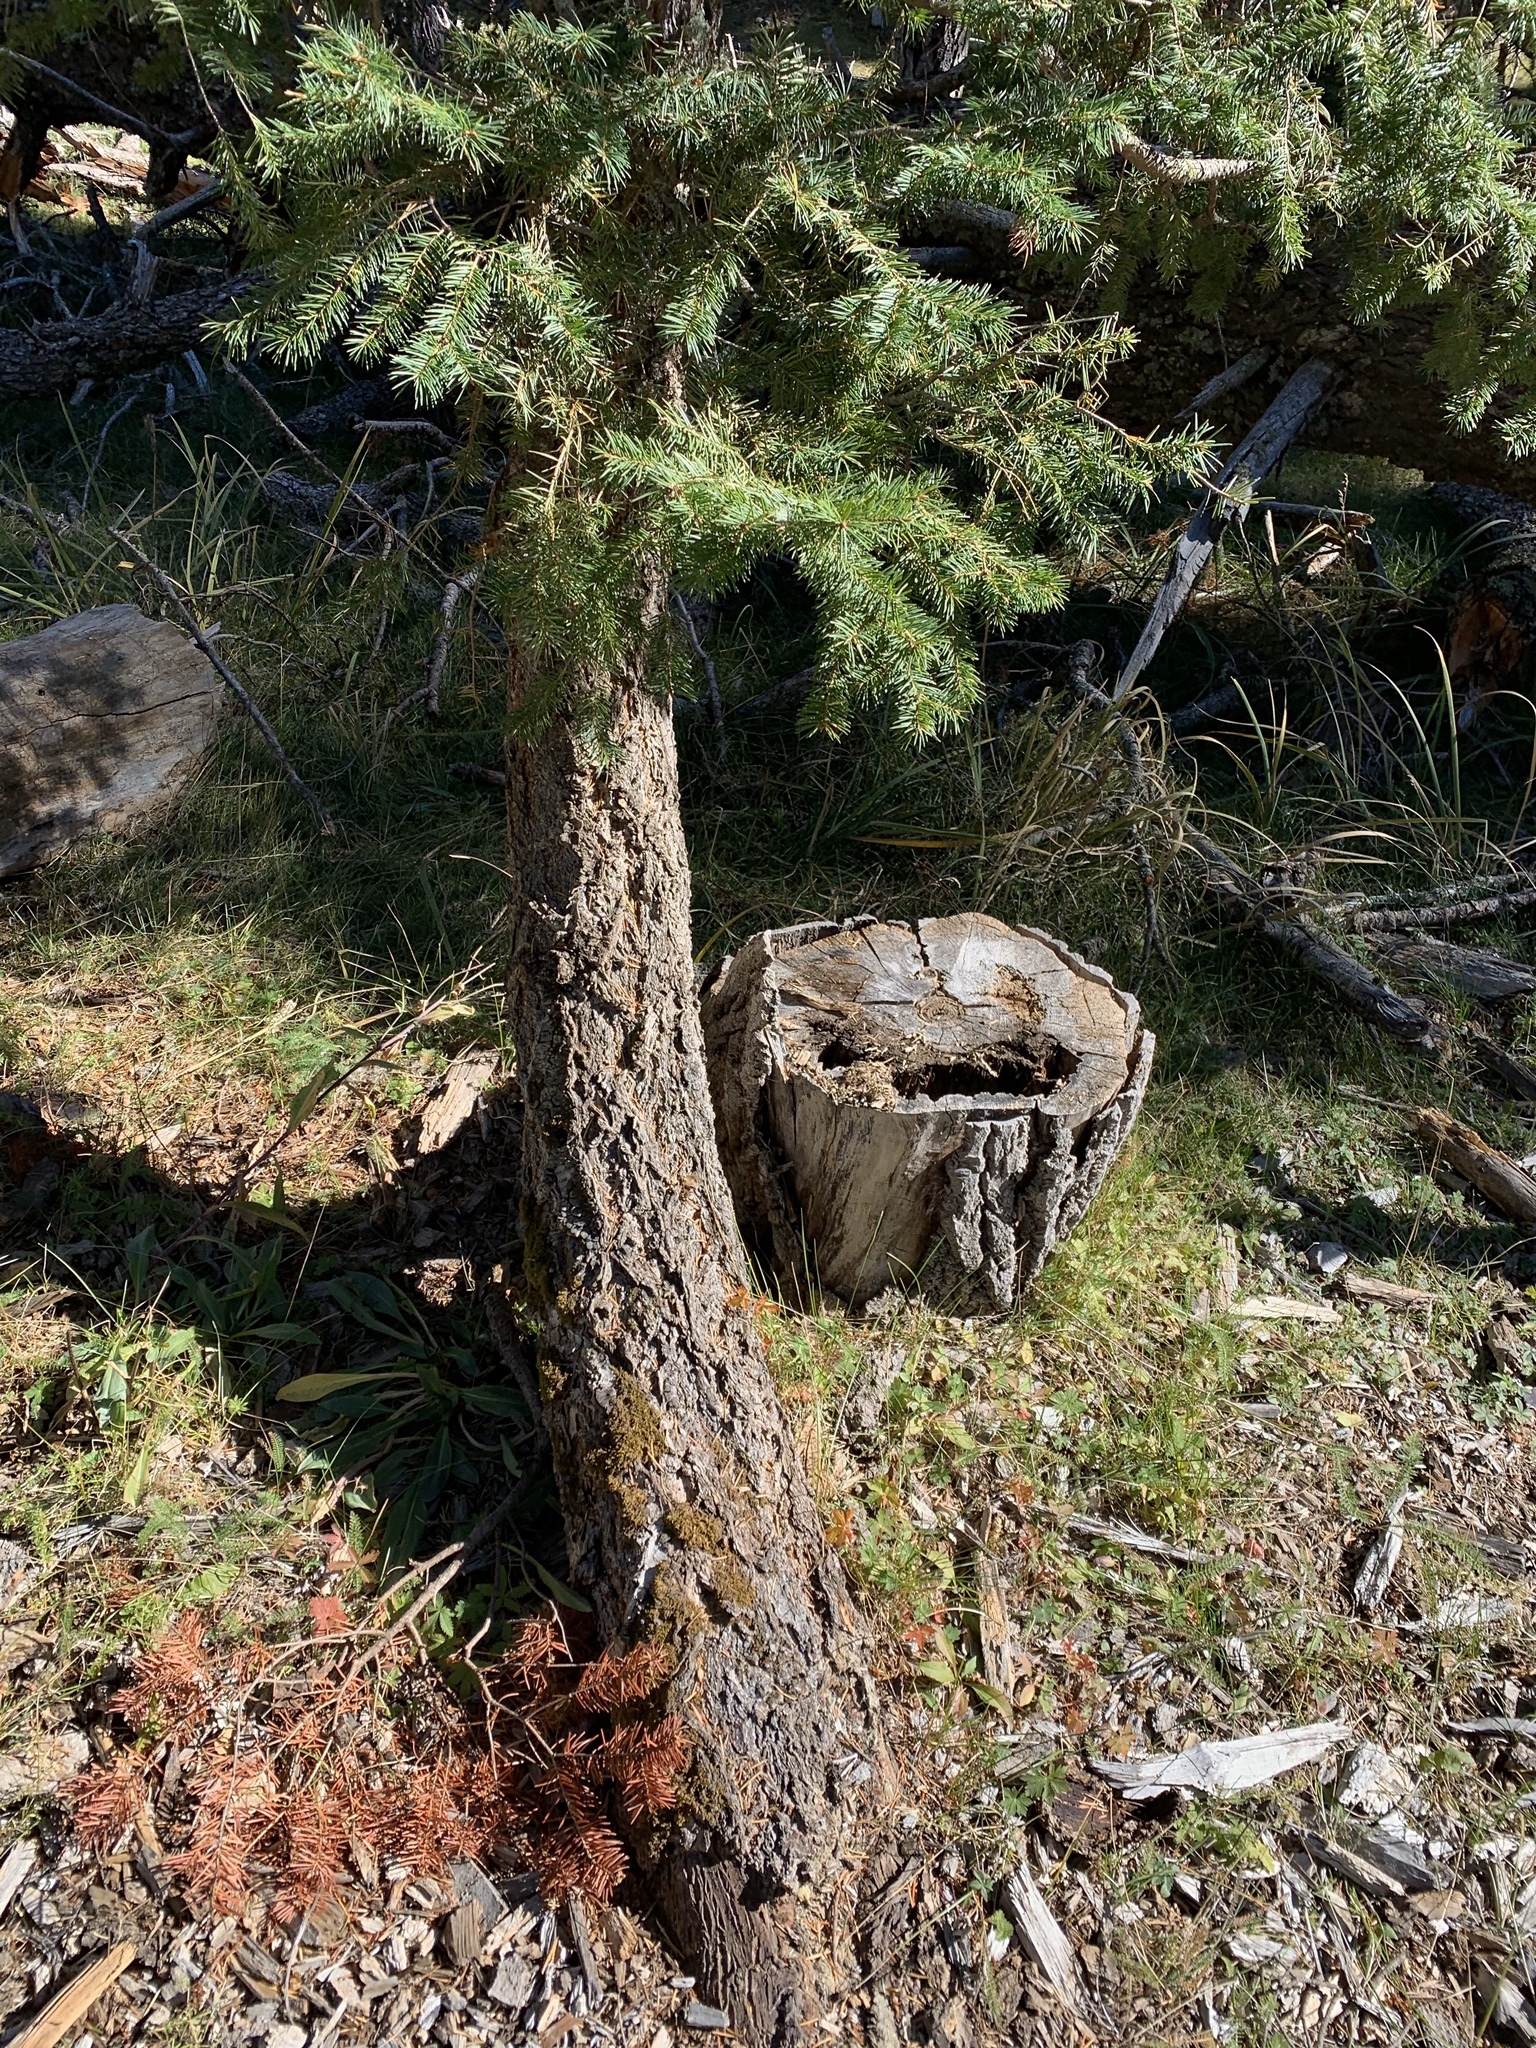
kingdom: Plantae
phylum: Tracheophyta
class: Pinopsida
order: Pinales
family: Pinaceae
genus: Pseudotsuga
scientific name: Pseudotsuga menziesii
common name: Douglas fir
